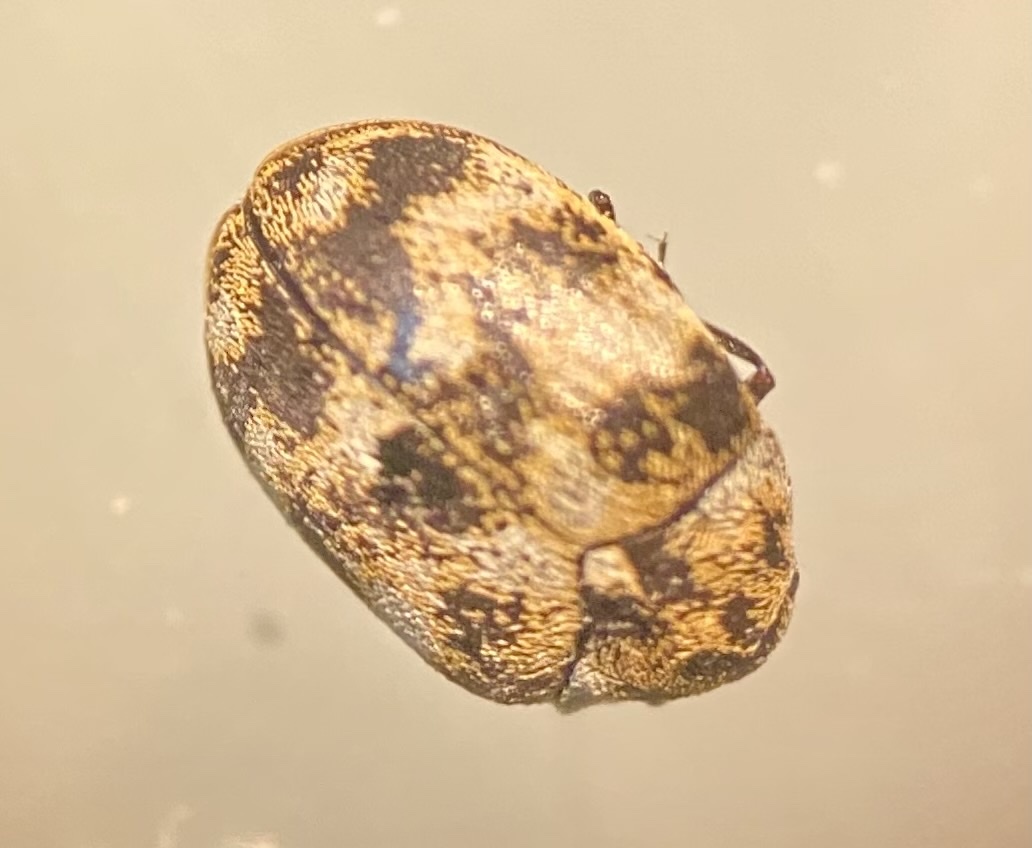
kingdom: Animalia
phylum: Arthropoda
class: Insecta
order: Coleoptera
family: Dermestidae
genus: Anthrenus
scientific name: Anthrenus verbasci
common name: Varied carpet beetle
